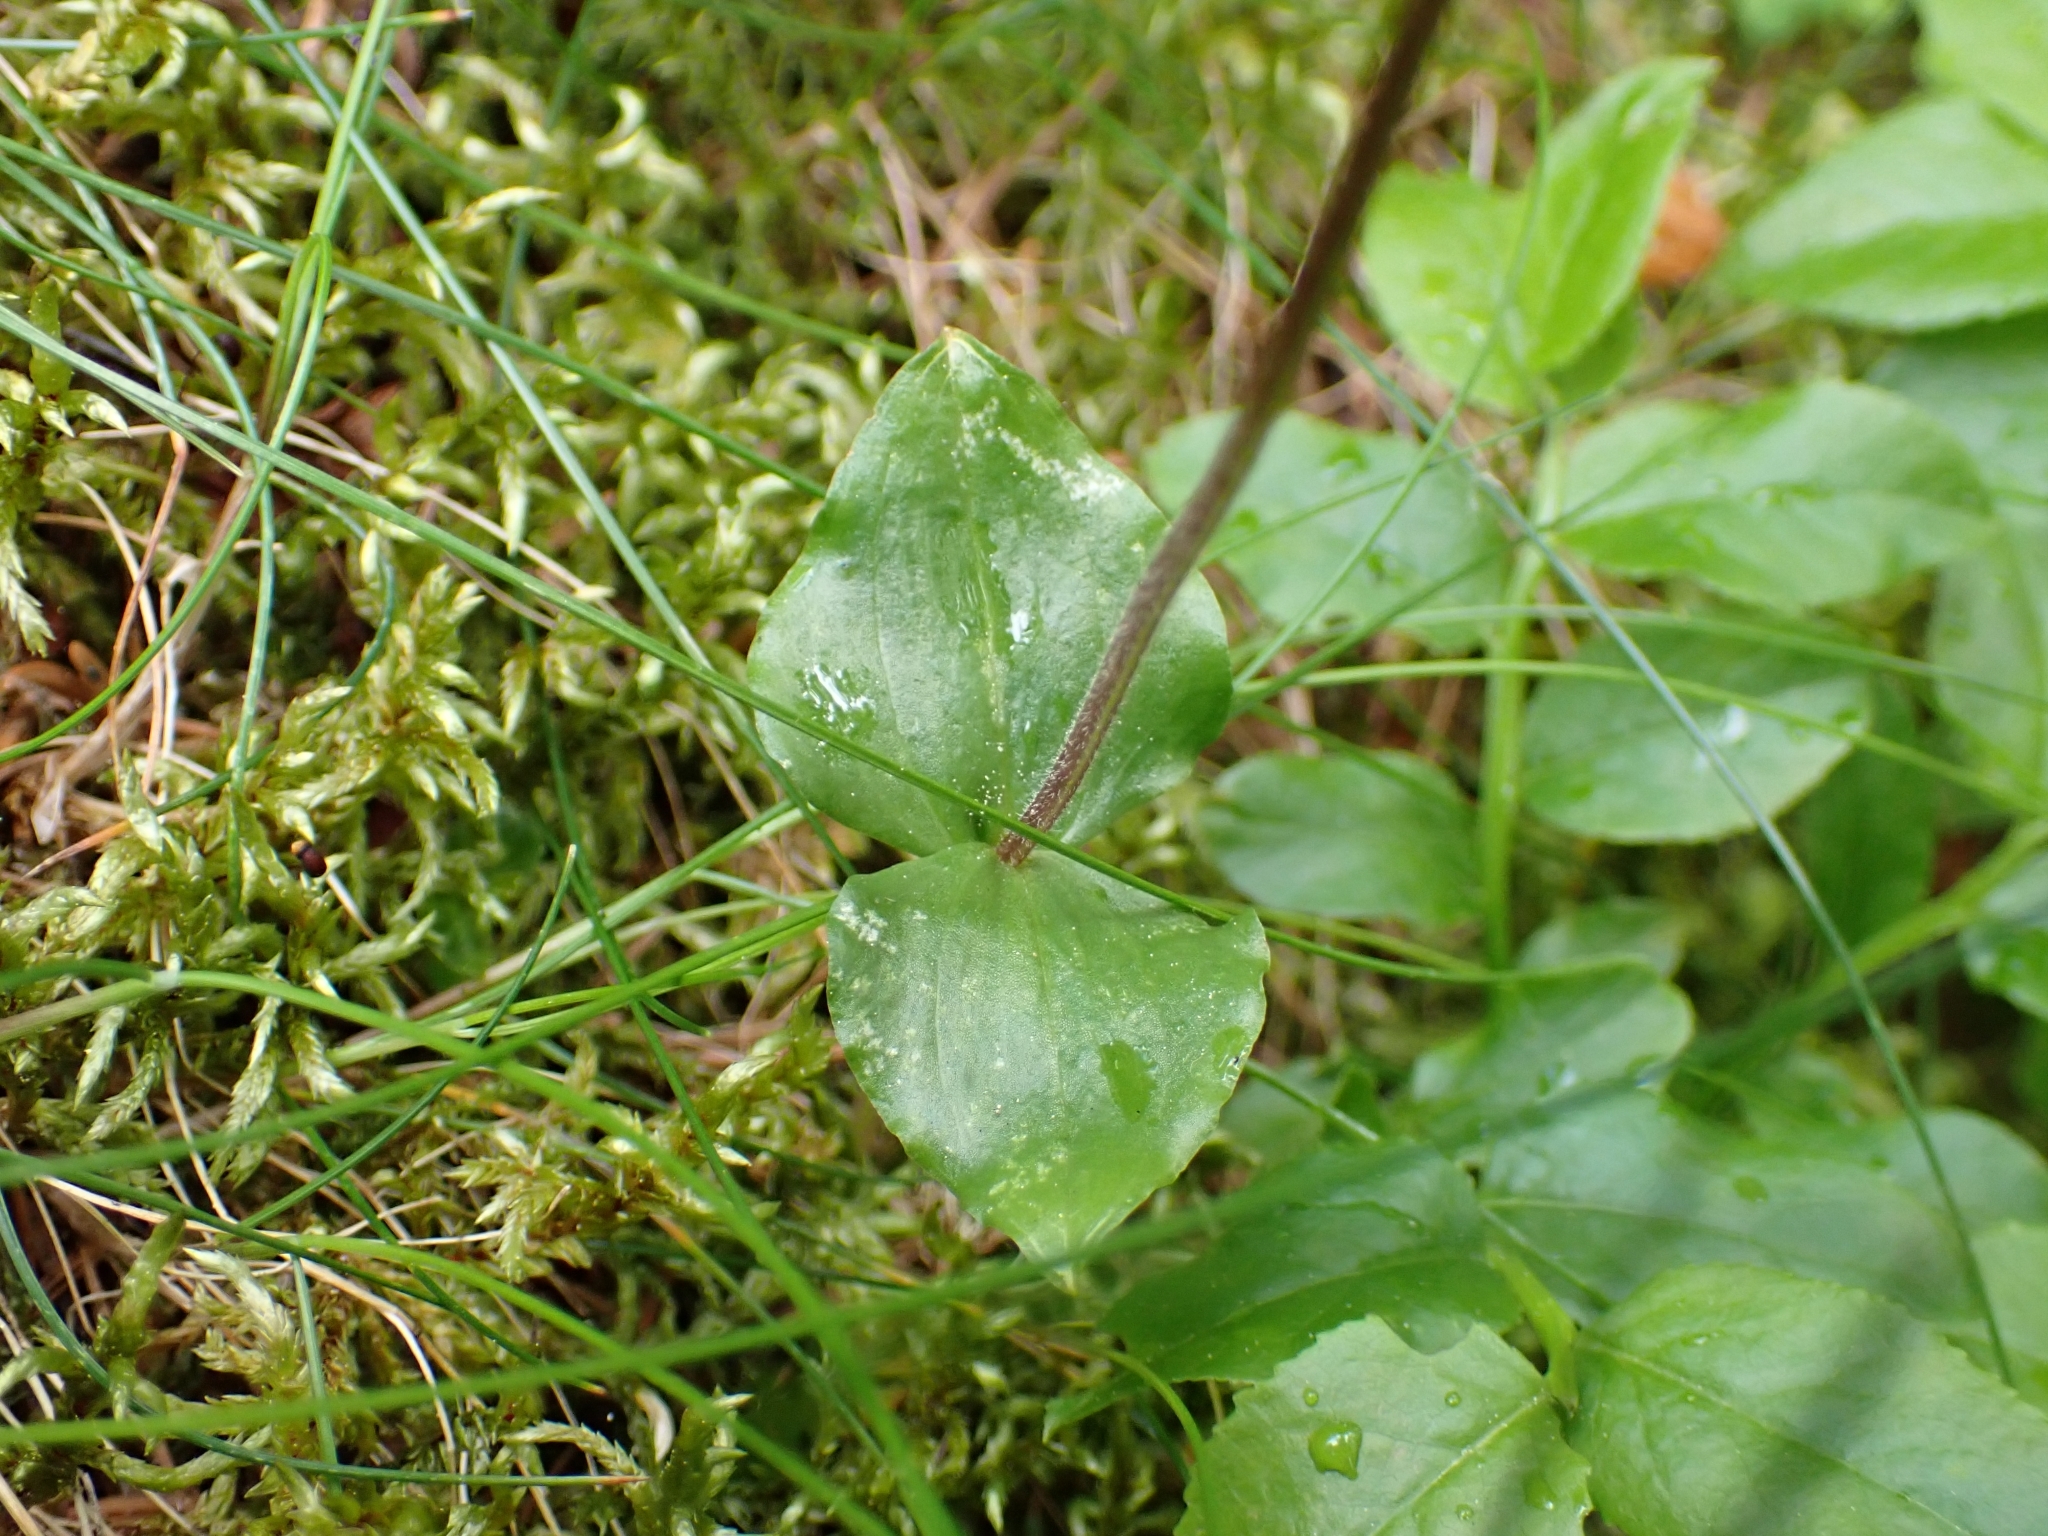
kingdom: Plantae
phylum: Tracheophyta
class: Liliopsida
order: Asparagales
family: Orchidaceae
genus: Neottia
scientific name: Neottia cordata
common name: Lesser twayblade
